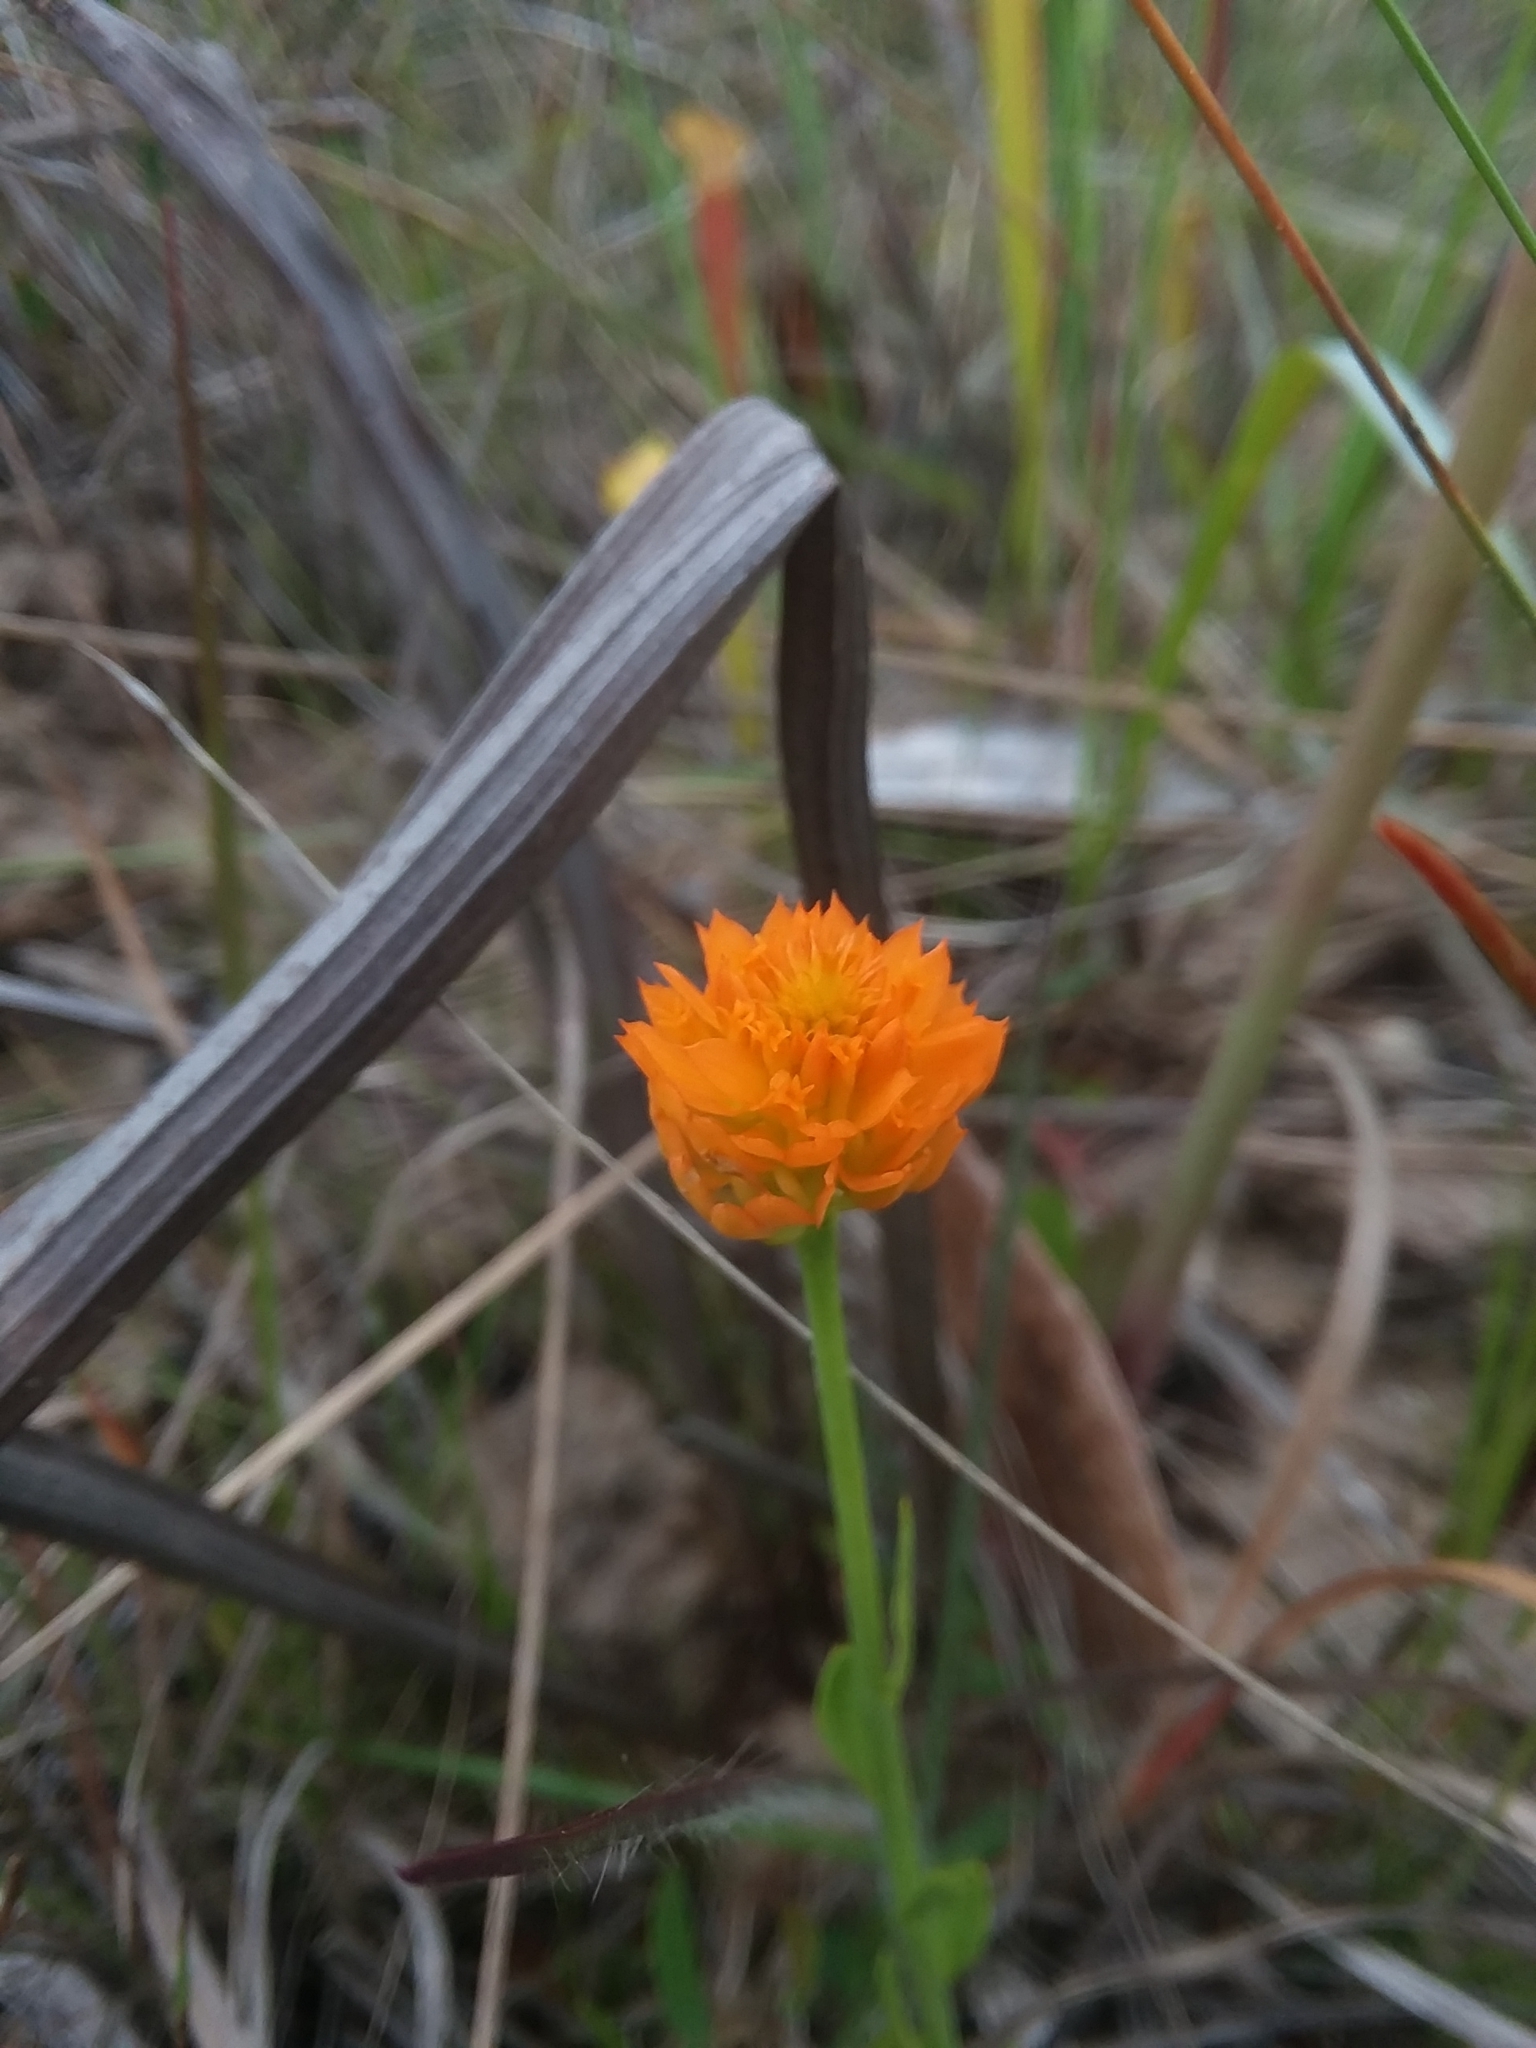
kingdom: Plantae
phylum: Tracheophyta
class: Magnoliopsida
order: Fabales
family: Polygalaceae
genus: Polygala
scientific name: Polygala lutea
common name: Orange milkwort
